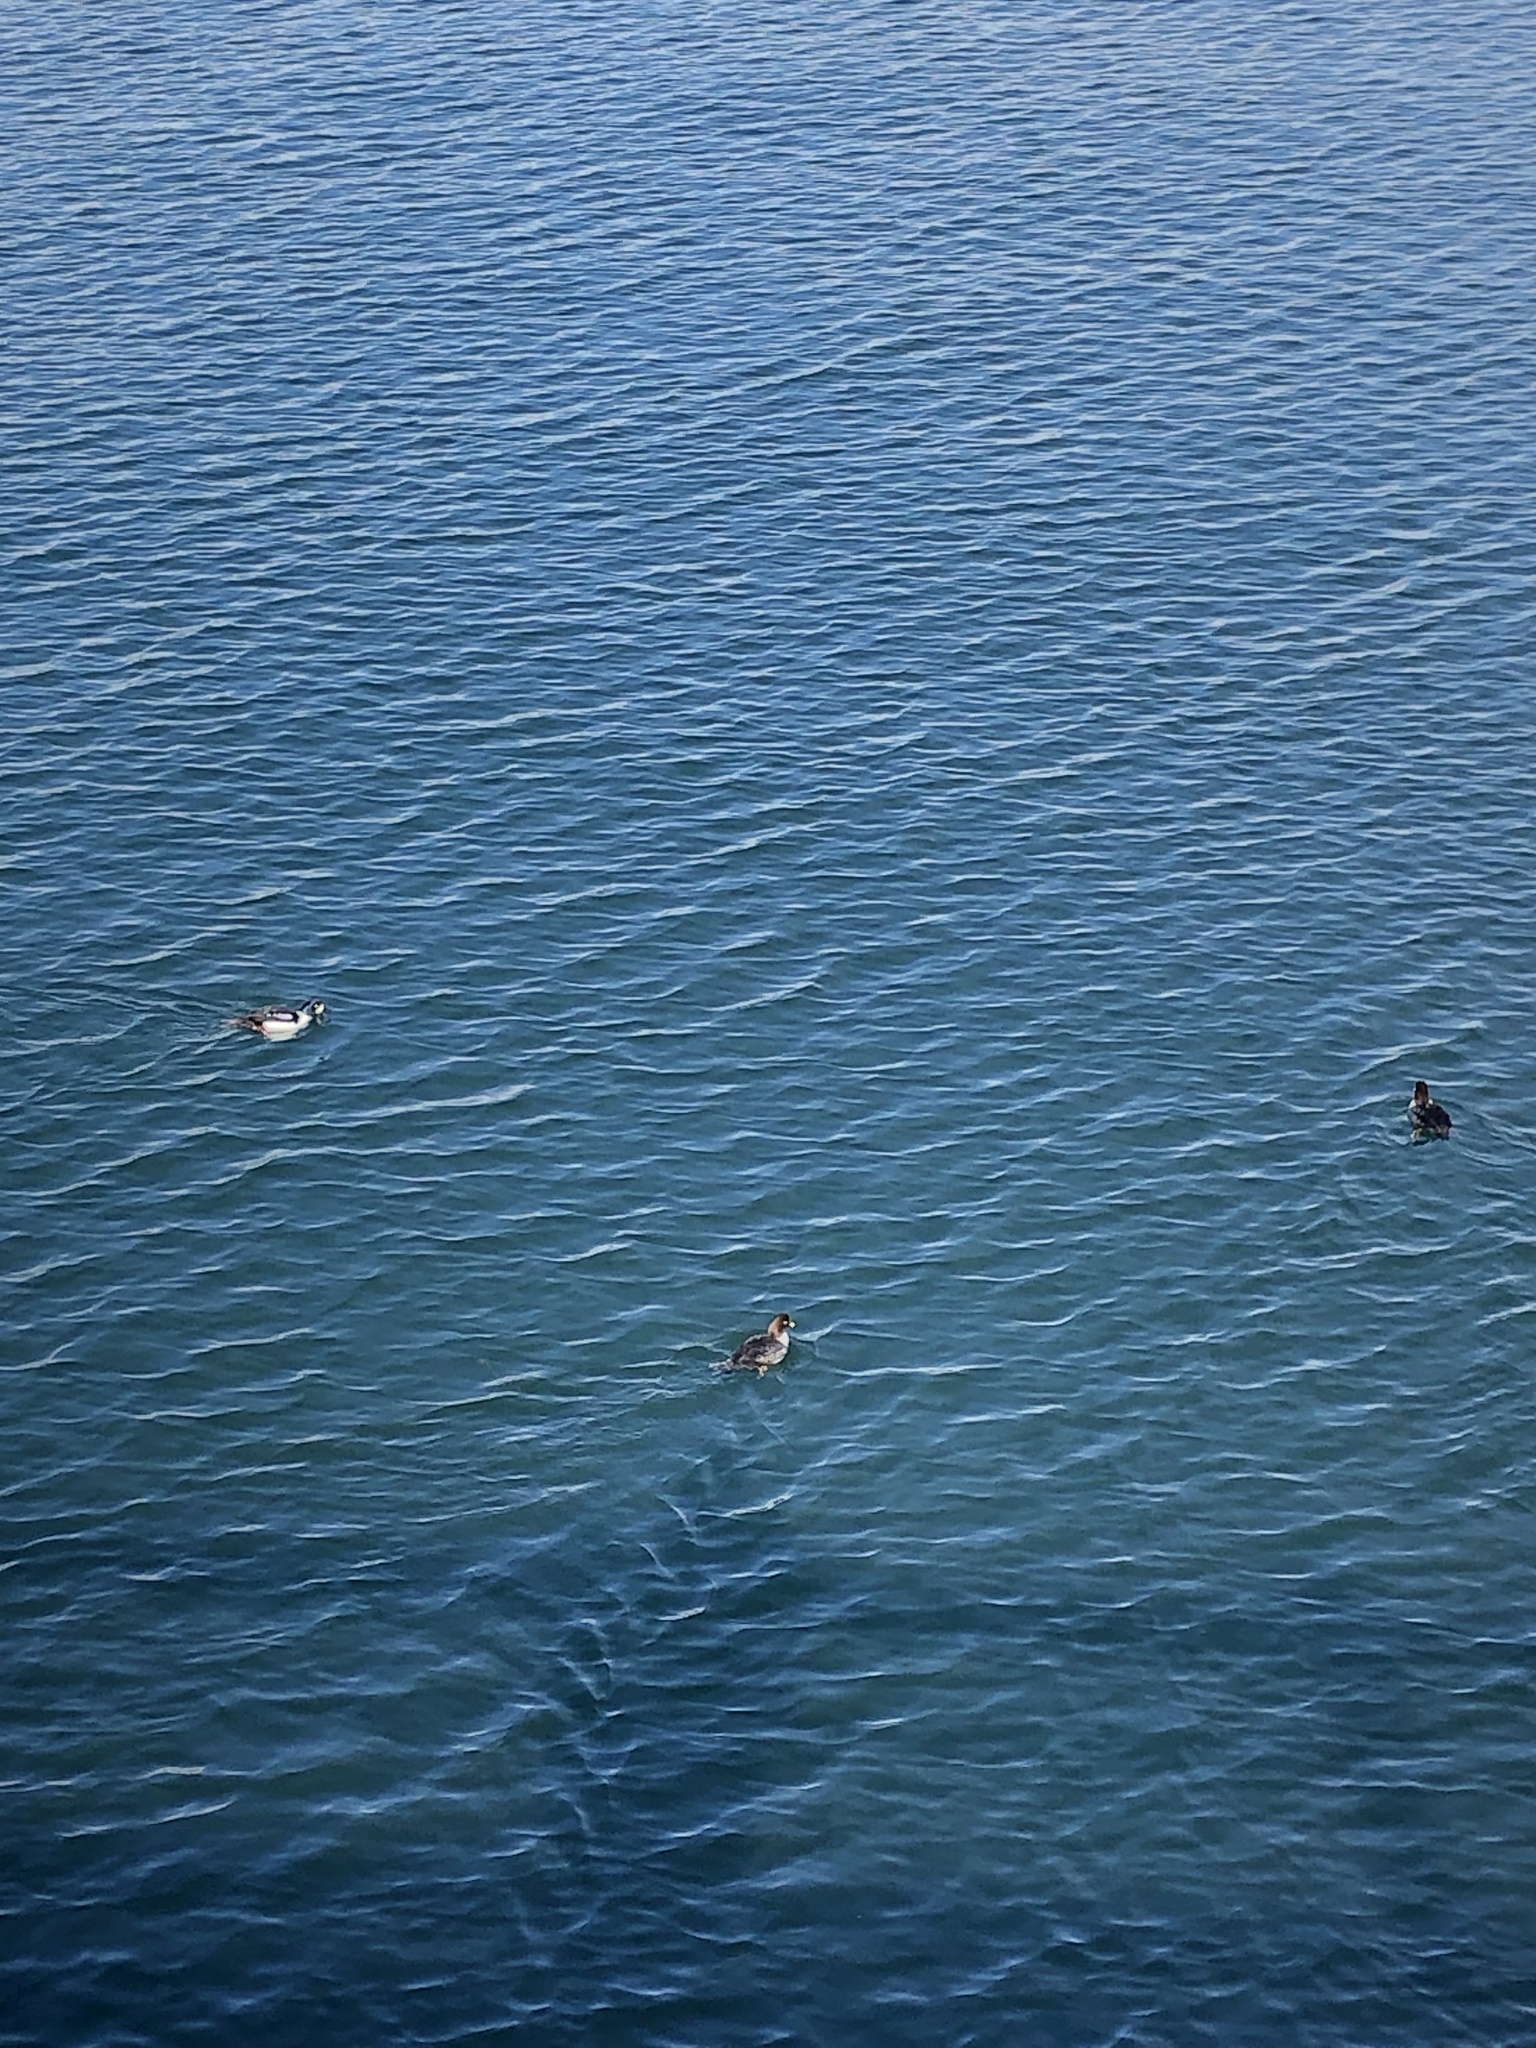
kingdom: Animalia
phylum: Chordata
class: Aves
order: Anseriformes
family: Anatidae
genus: Bucephala
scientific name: Bucephala islandica
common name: Barrow's goldeneye
